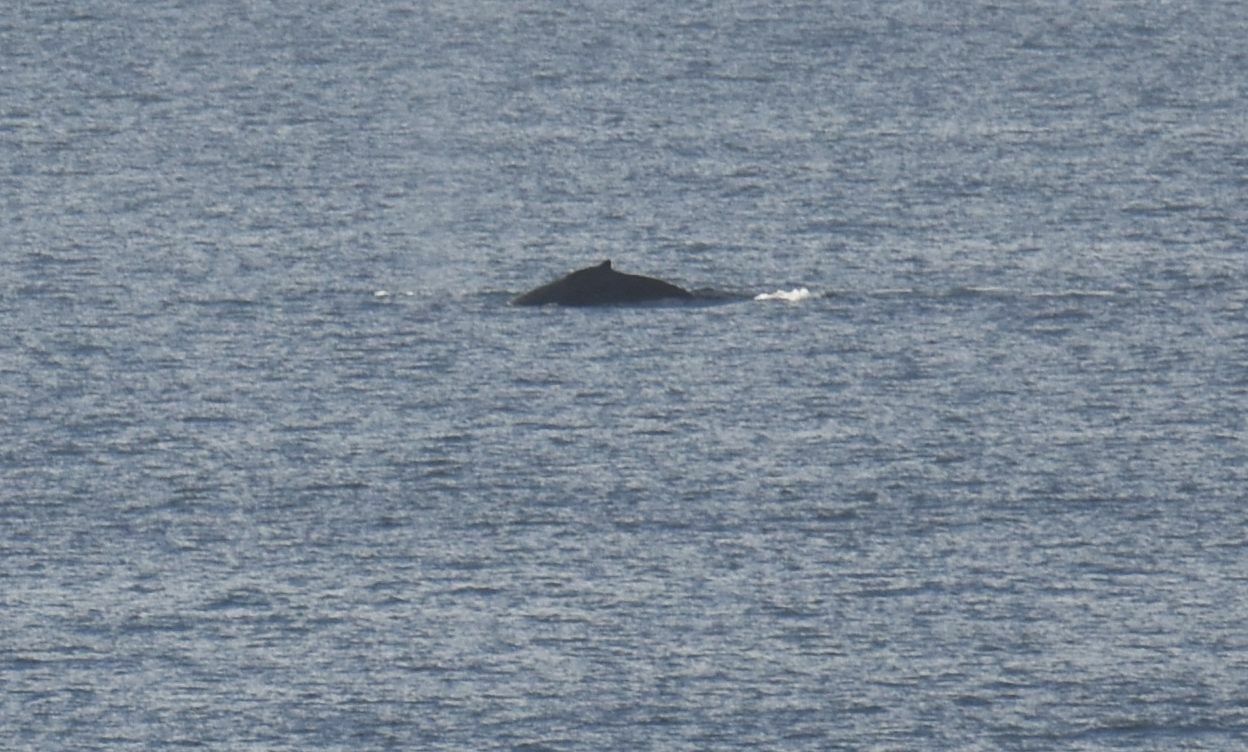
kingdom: Animalia
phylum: Chordata
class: Mammalia
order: Cetacea
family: Balaenopteridae
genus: Megaptera
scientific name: Megaptera novaeangliae
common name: Humpback whale
